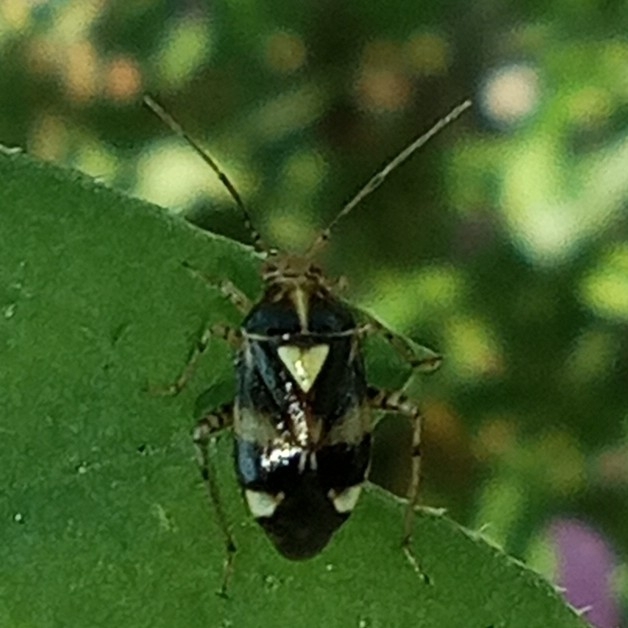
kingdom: Animalia
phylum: Arthropoda
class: Insecta
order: Hemiptera
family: Miridae
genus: Liocoris
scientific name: Liocoris tripustulatus
